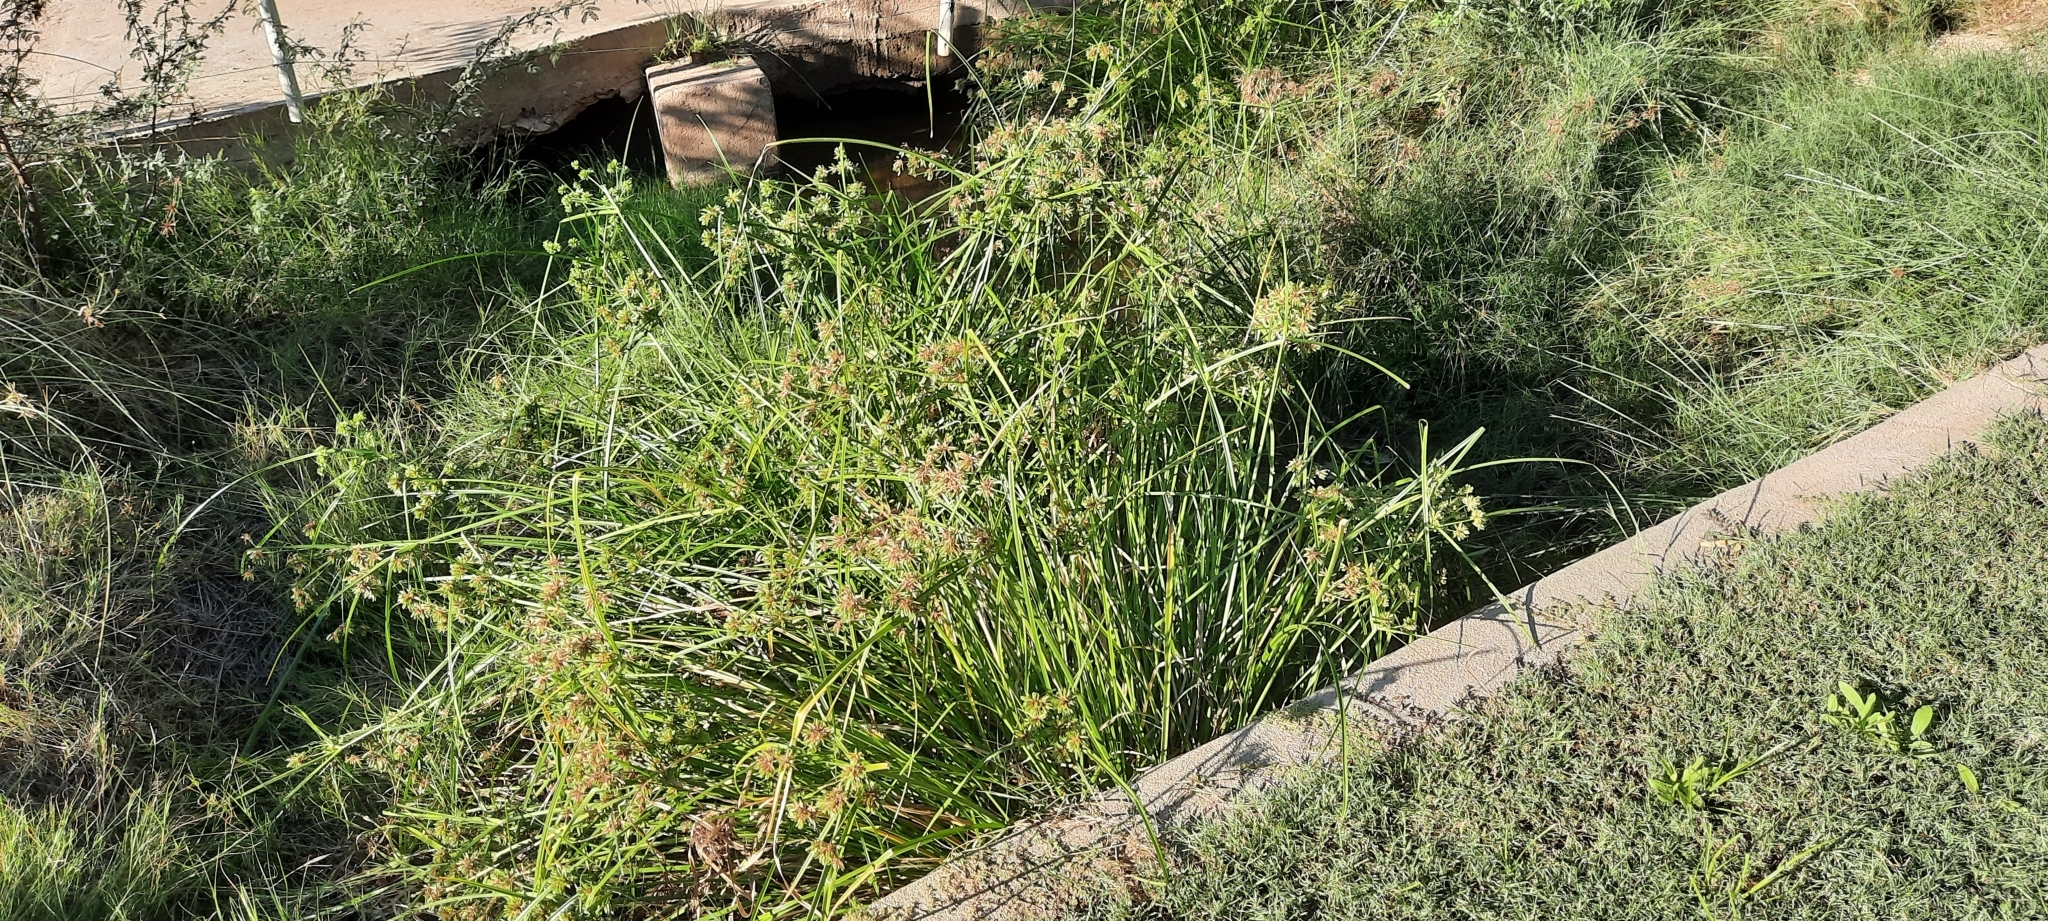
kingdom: Plantae
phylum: Tracheophyta
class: Liliopsida
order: Poales
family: Cyperaceae
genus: Cyperus
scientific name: Cyperus eragrostis
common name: Tall flatsedge
